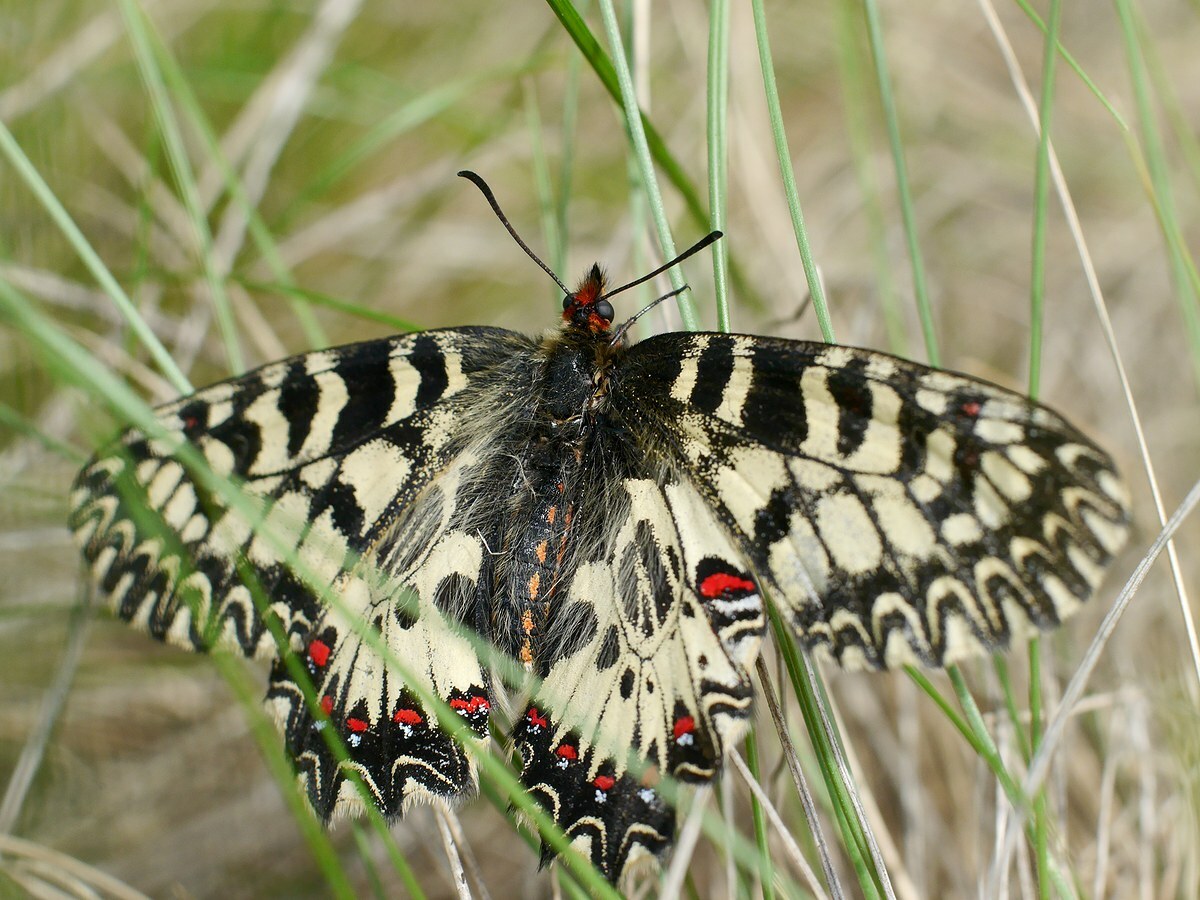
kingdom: Animalia
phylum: Arthropoda
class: Insecta
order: Lepidoptera
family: Papilionidae
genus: Zerynthia
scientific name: Zerynthia polyxena
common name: Southern festoon
